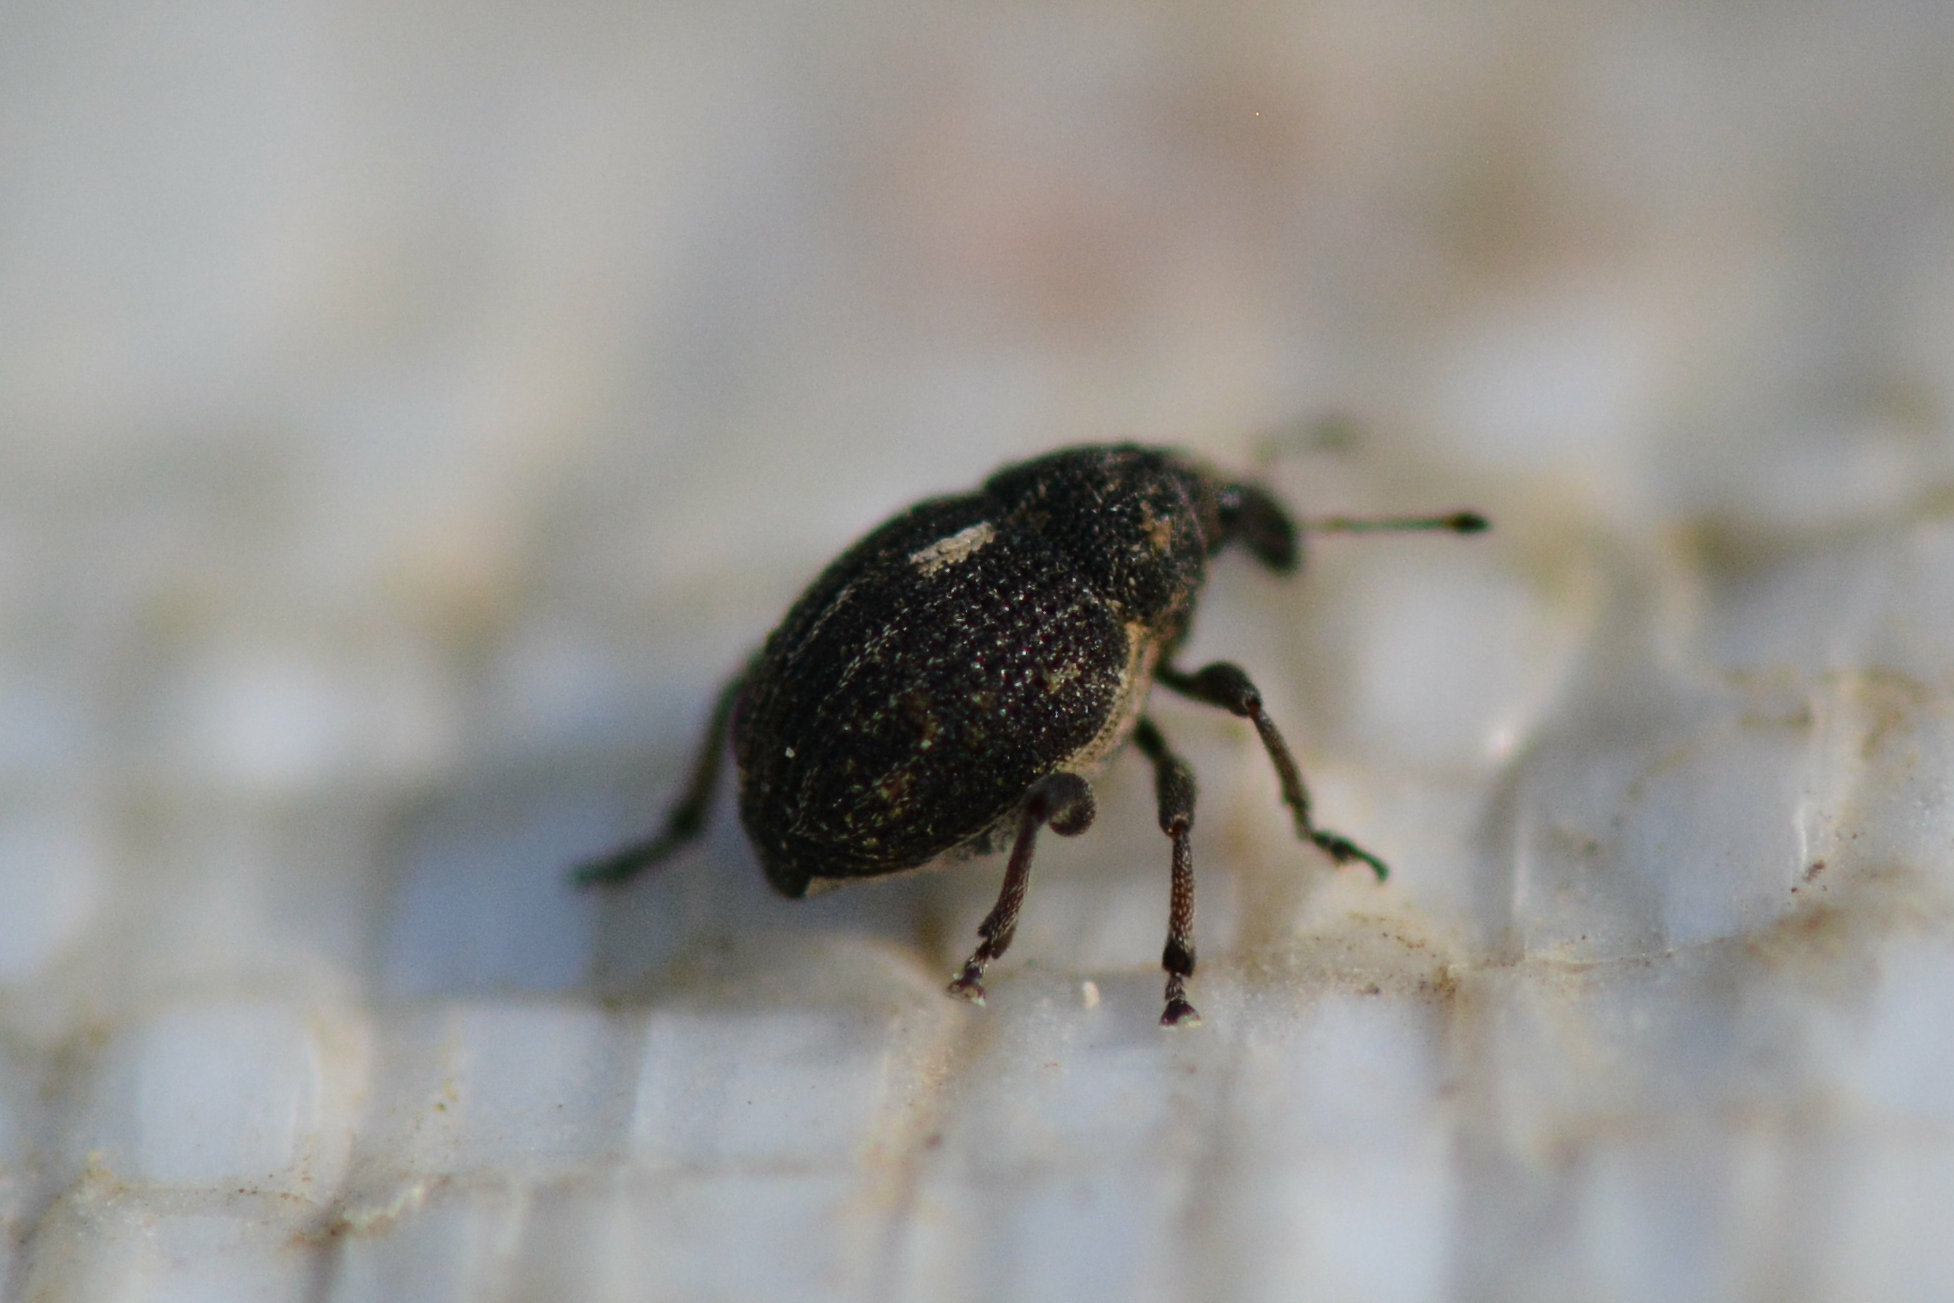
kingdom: Animalia
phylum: Arthropoda
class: Insecta
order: Coleoptera
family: Curculionidae
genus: Rhinoncus
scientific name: Rhinoncus leucostigma
